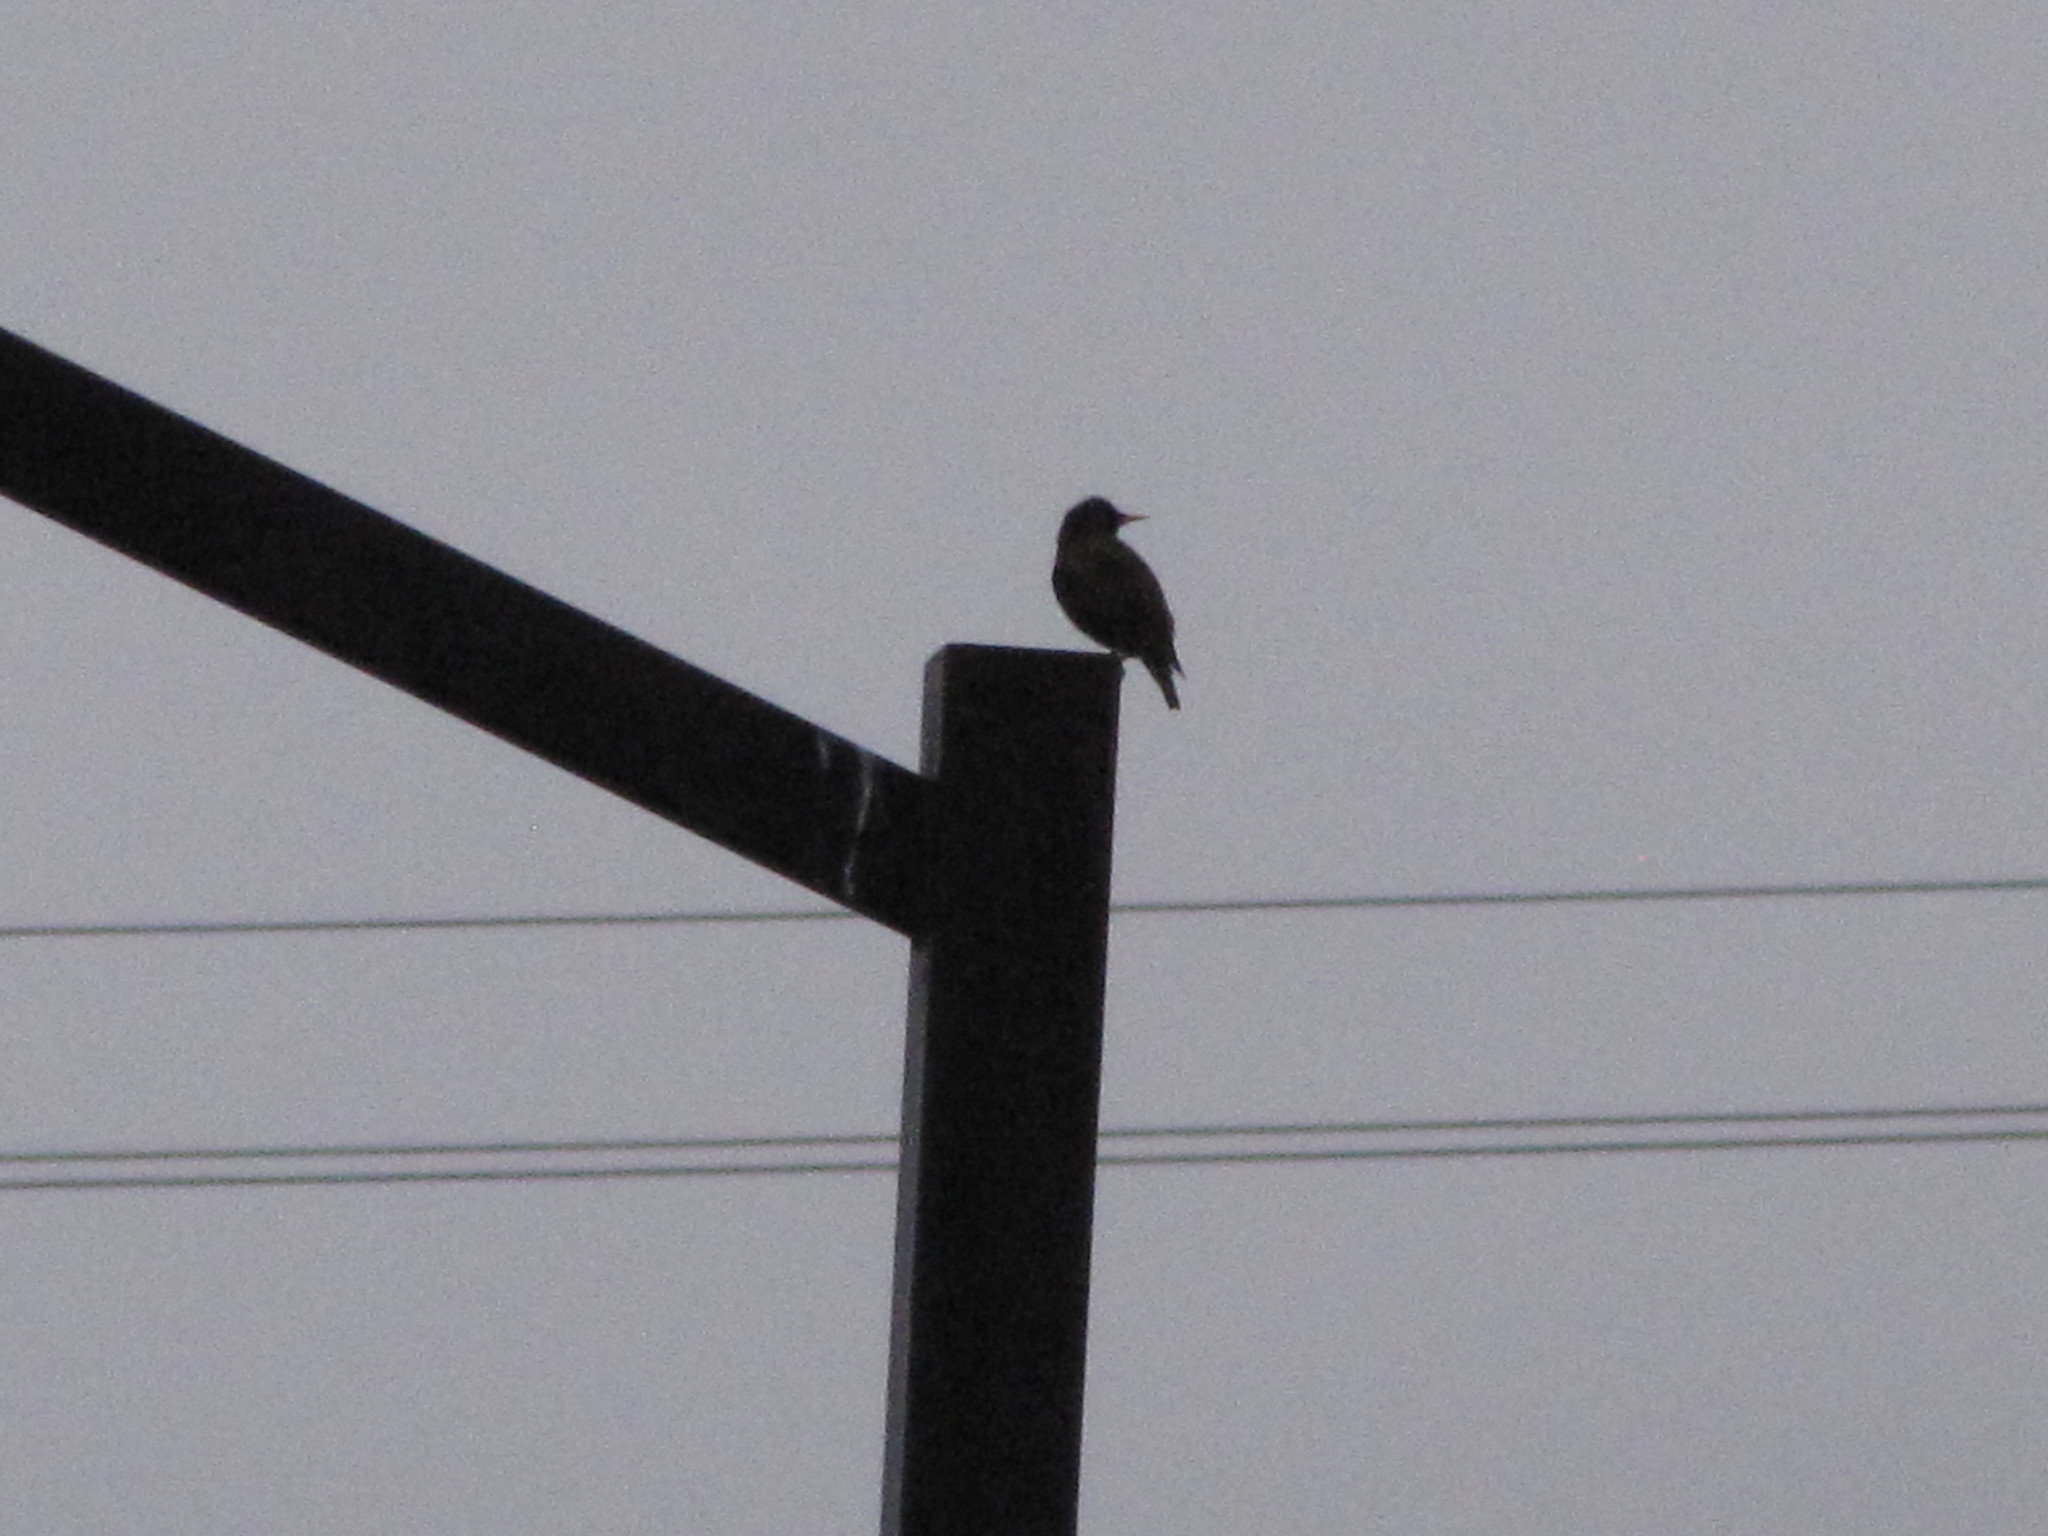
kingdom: Animalia
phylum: Chordata
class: Aves
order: Passeriformes
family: Sturnidae
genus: Sturnus
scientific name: Sturnus vulgaris
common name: Common starling
